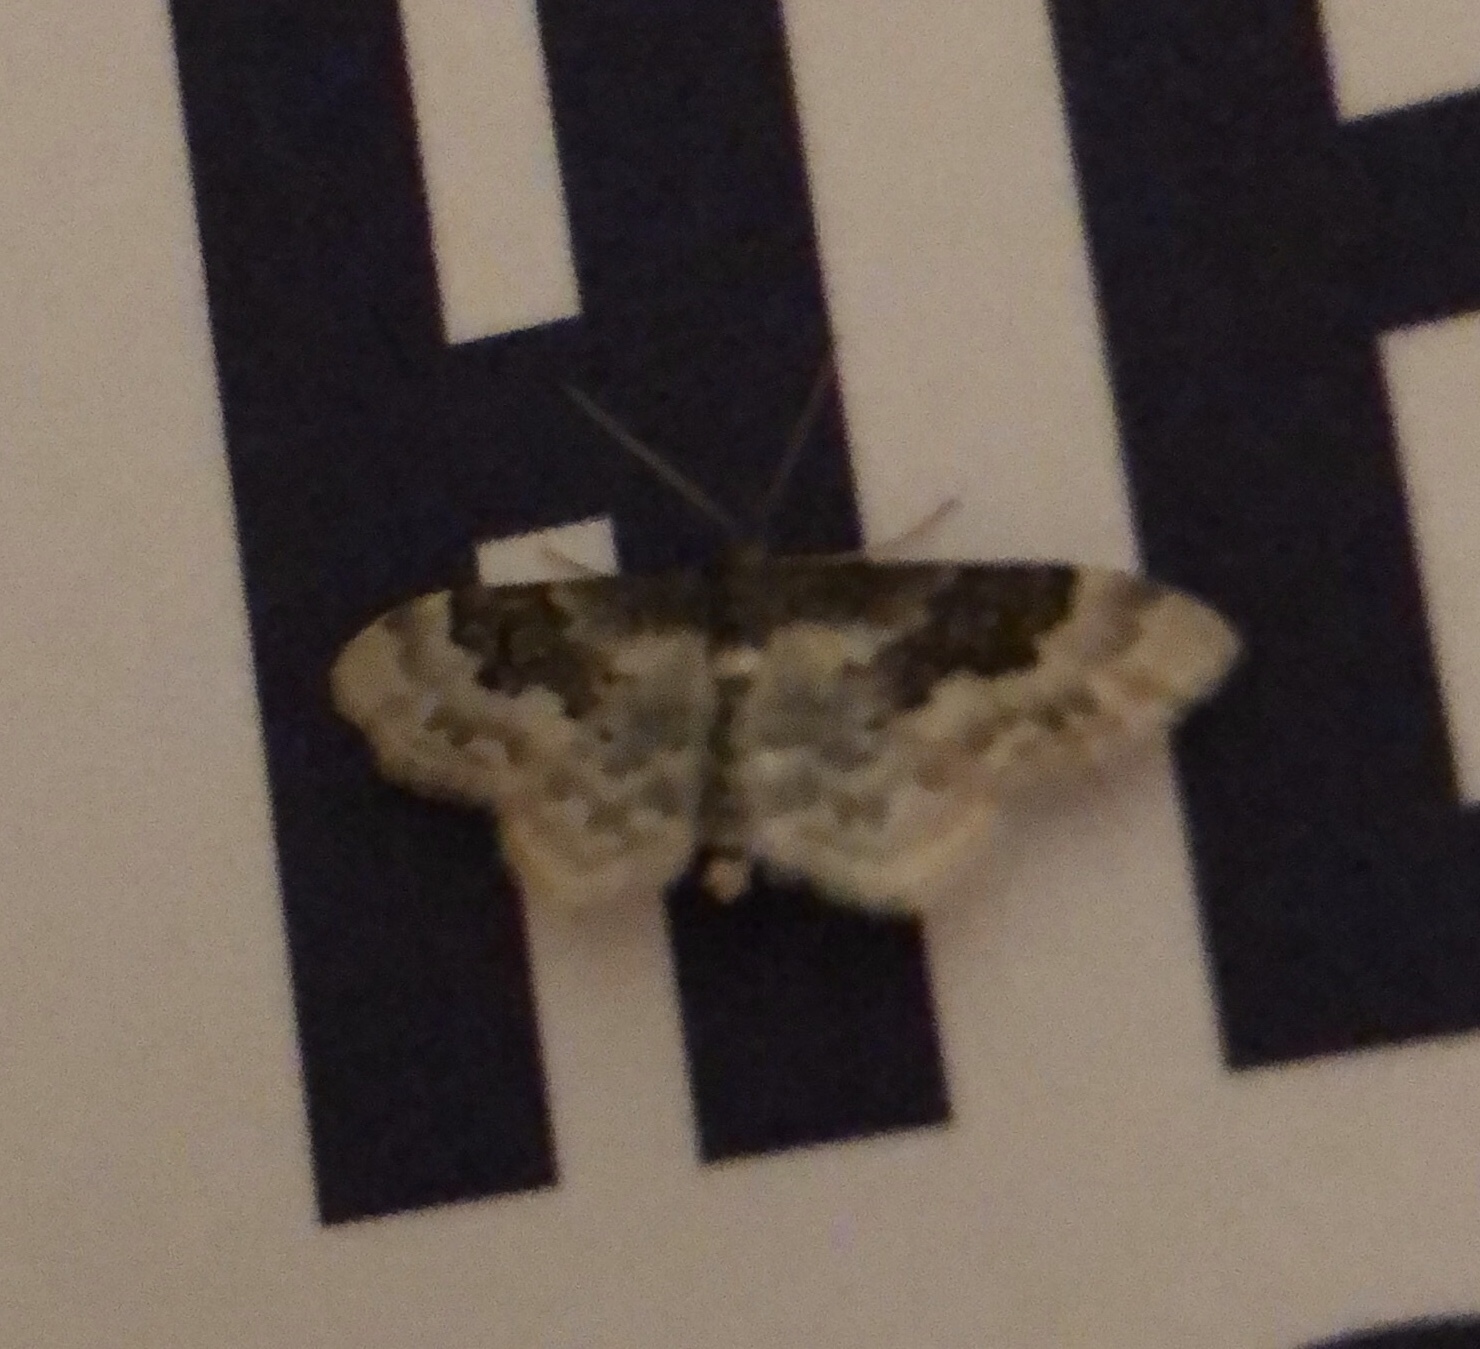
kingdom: Animalia
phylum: Arthropoda
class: Insecta
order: Lepidoptera
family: Geometridae
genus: Idaea
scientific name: Idaea rusticata
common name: Least carpet
